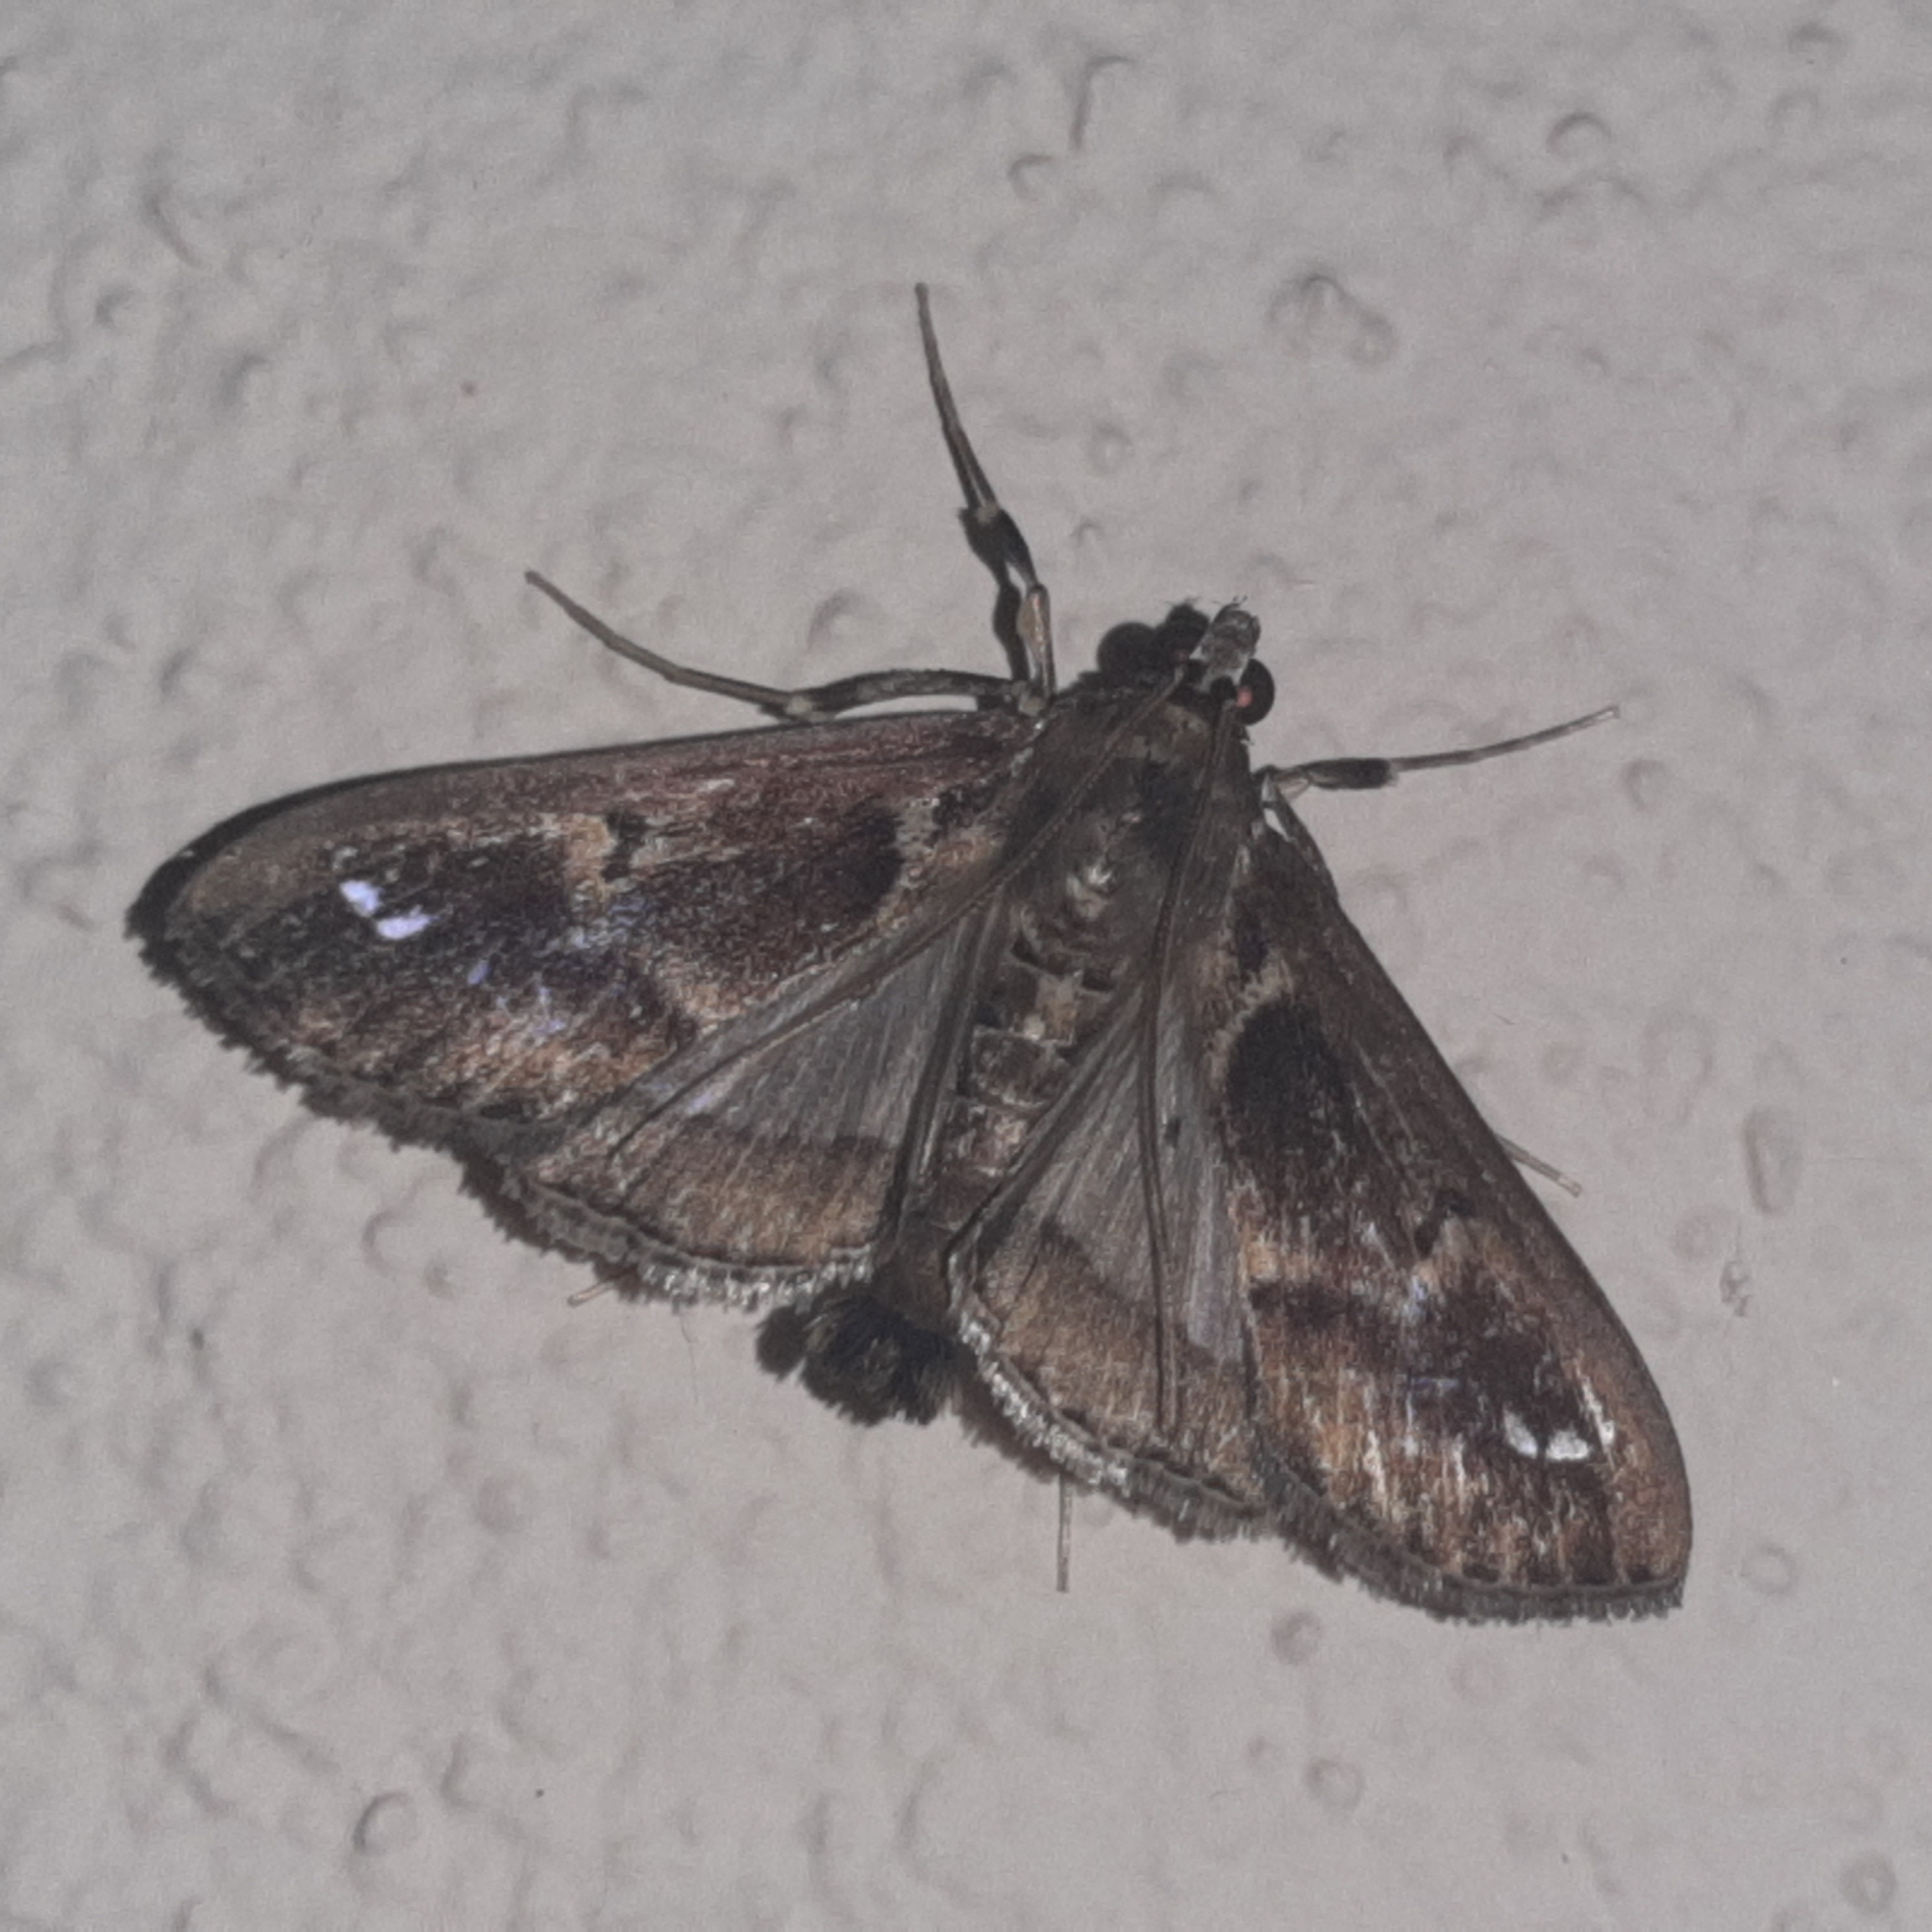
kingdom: Animalia
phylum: Arthropoda
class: Insecta
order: Lepidoptera
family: Crambidae
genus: Diaphania
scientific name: Diaphania costaricalis
